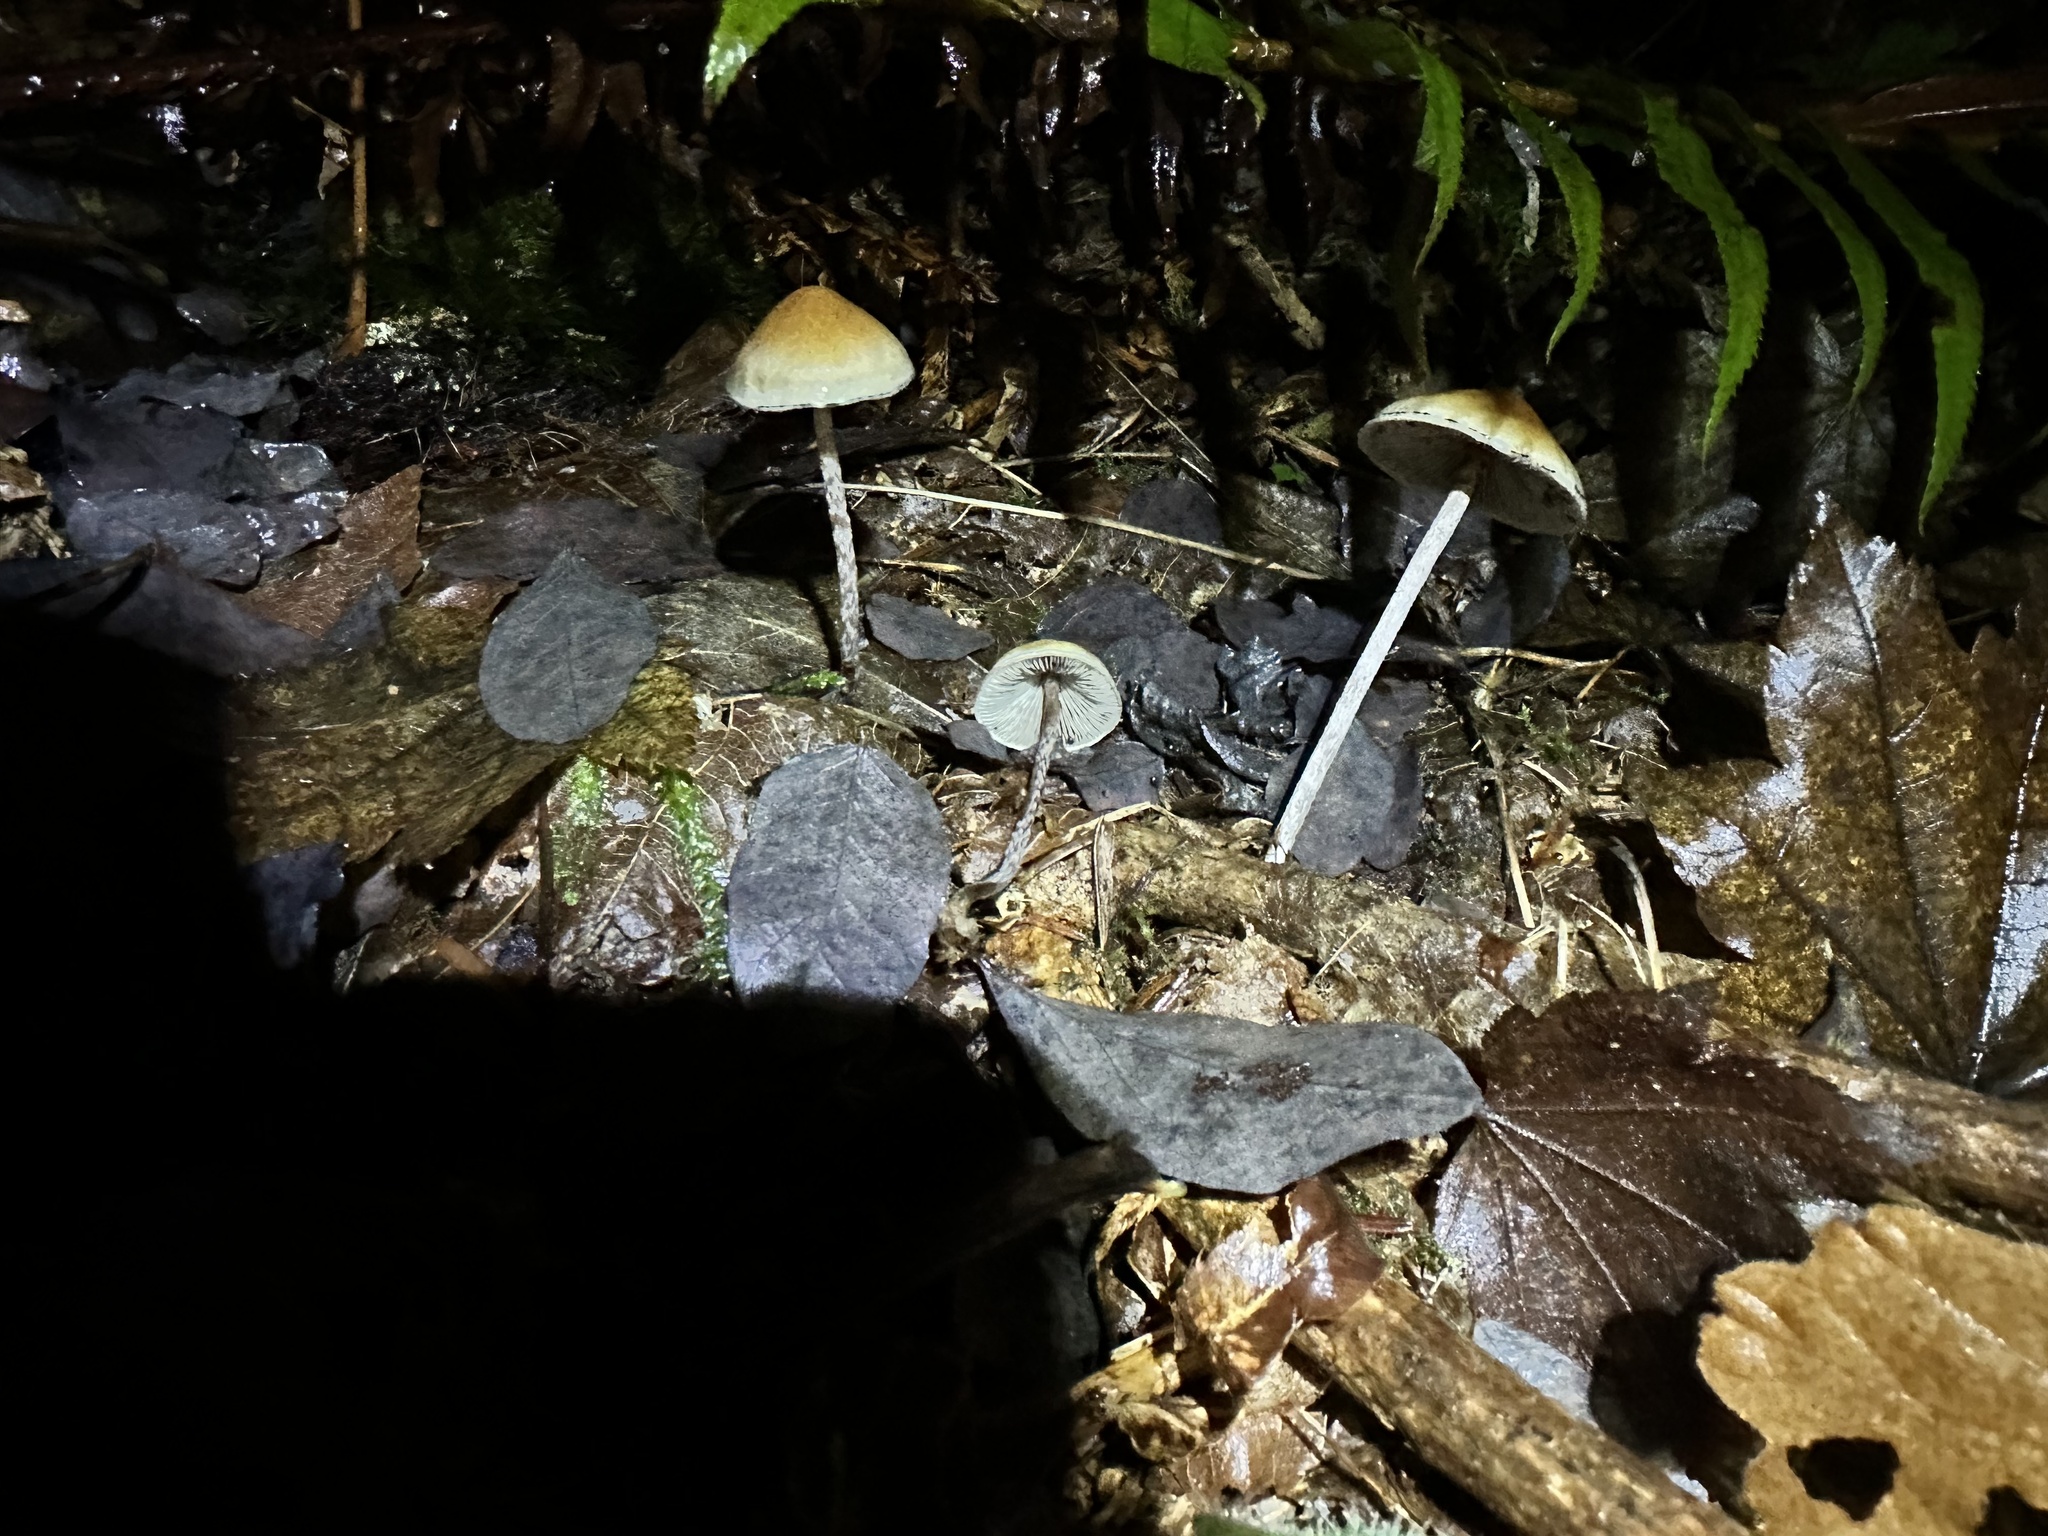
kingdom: Fungi
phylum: Basidiomycota
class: Agaricomycetes
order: Agaricales
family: Strophariaceae
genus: Hypholoma
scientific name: Hypholoma dispersum
